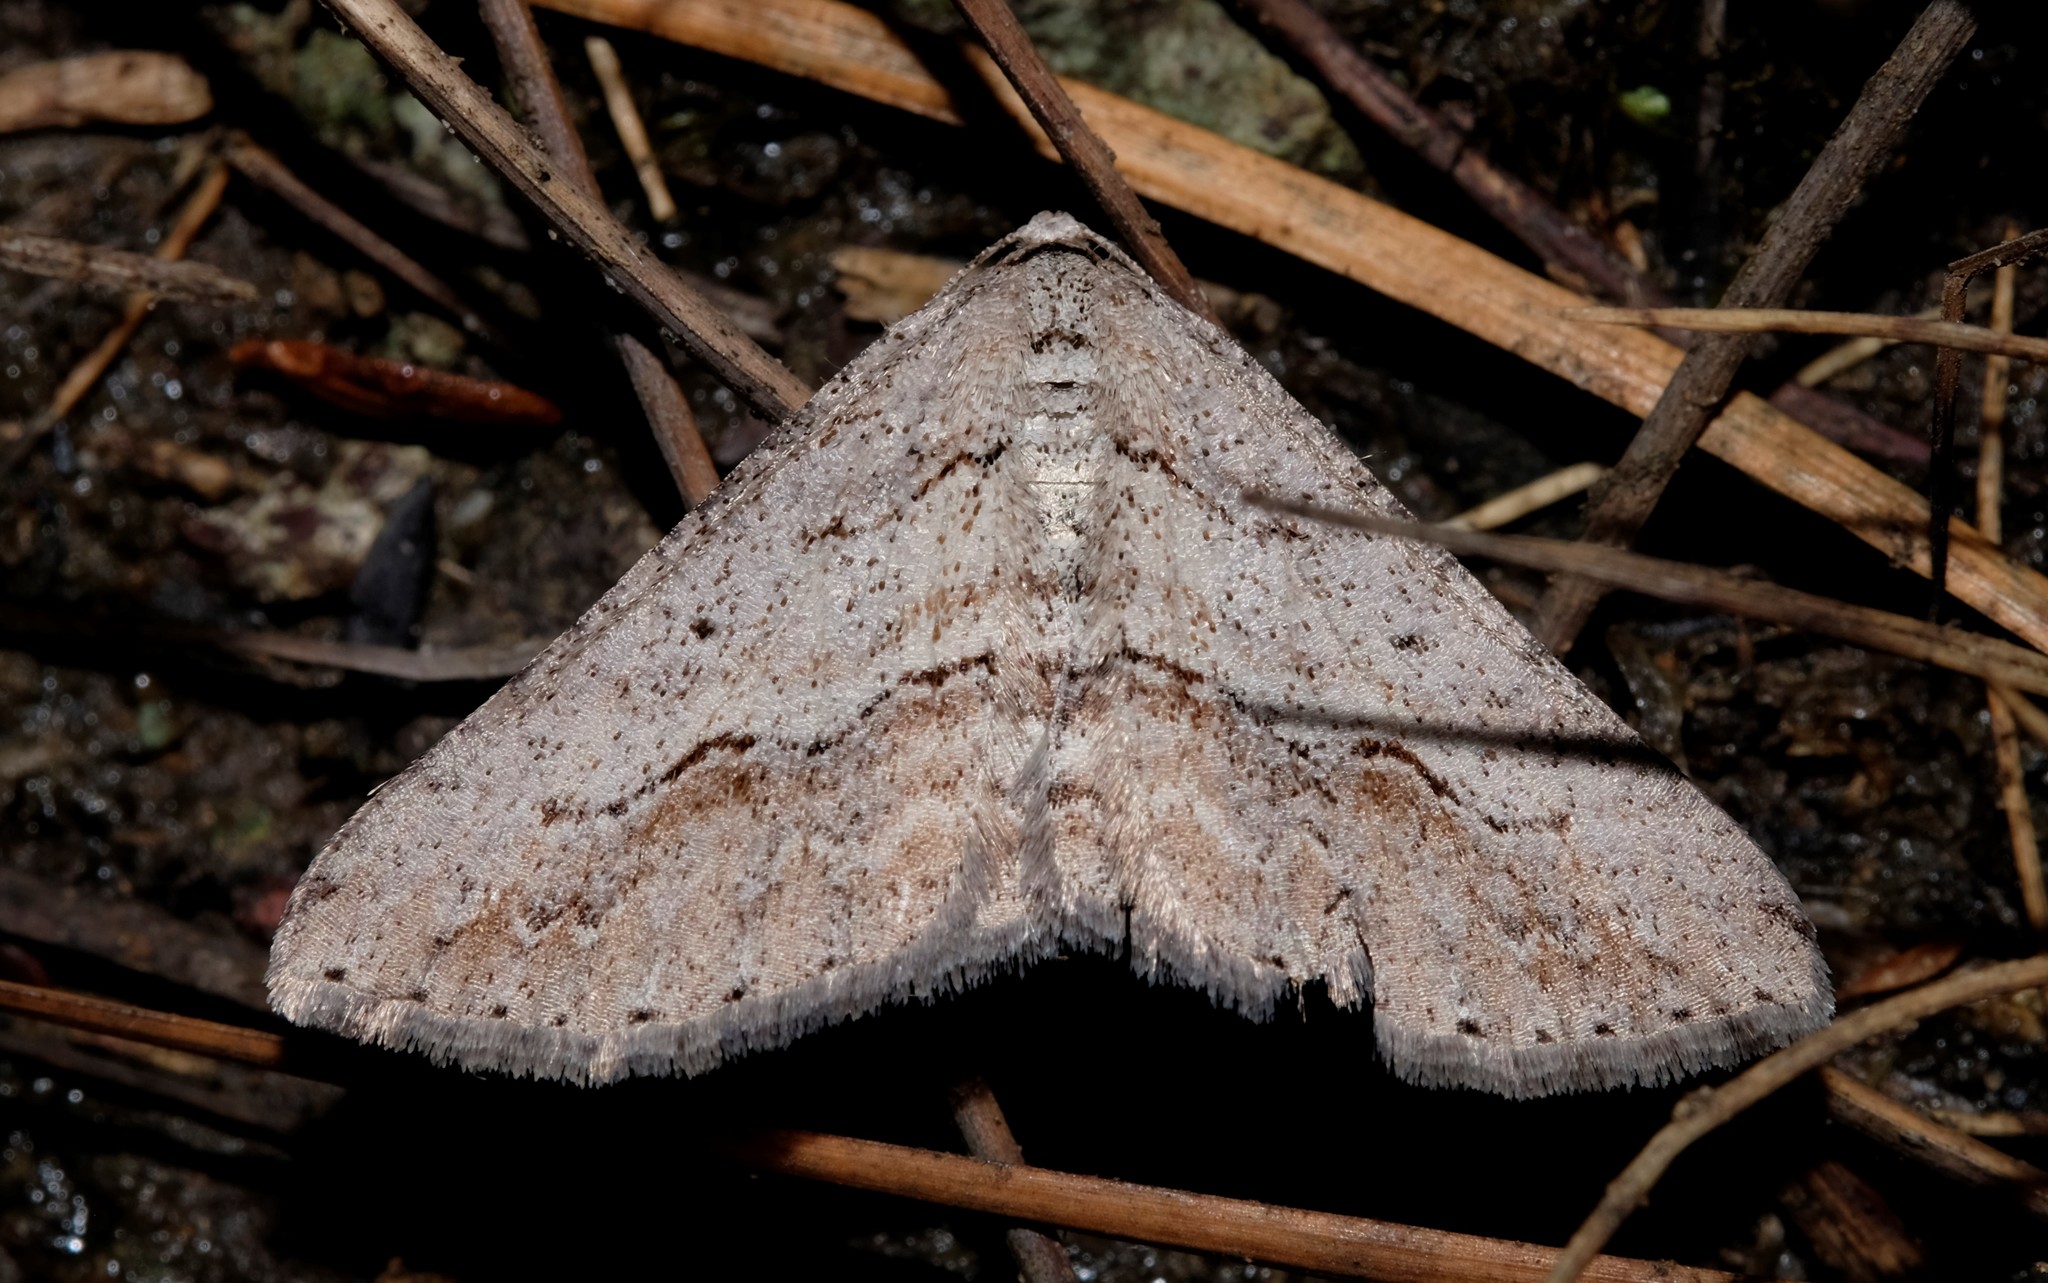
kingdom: Animalia
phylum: Arthropoda
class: Insecta
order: Lepidoptera
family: Geometridae
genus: Syneora
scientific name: Syneora mundifera
